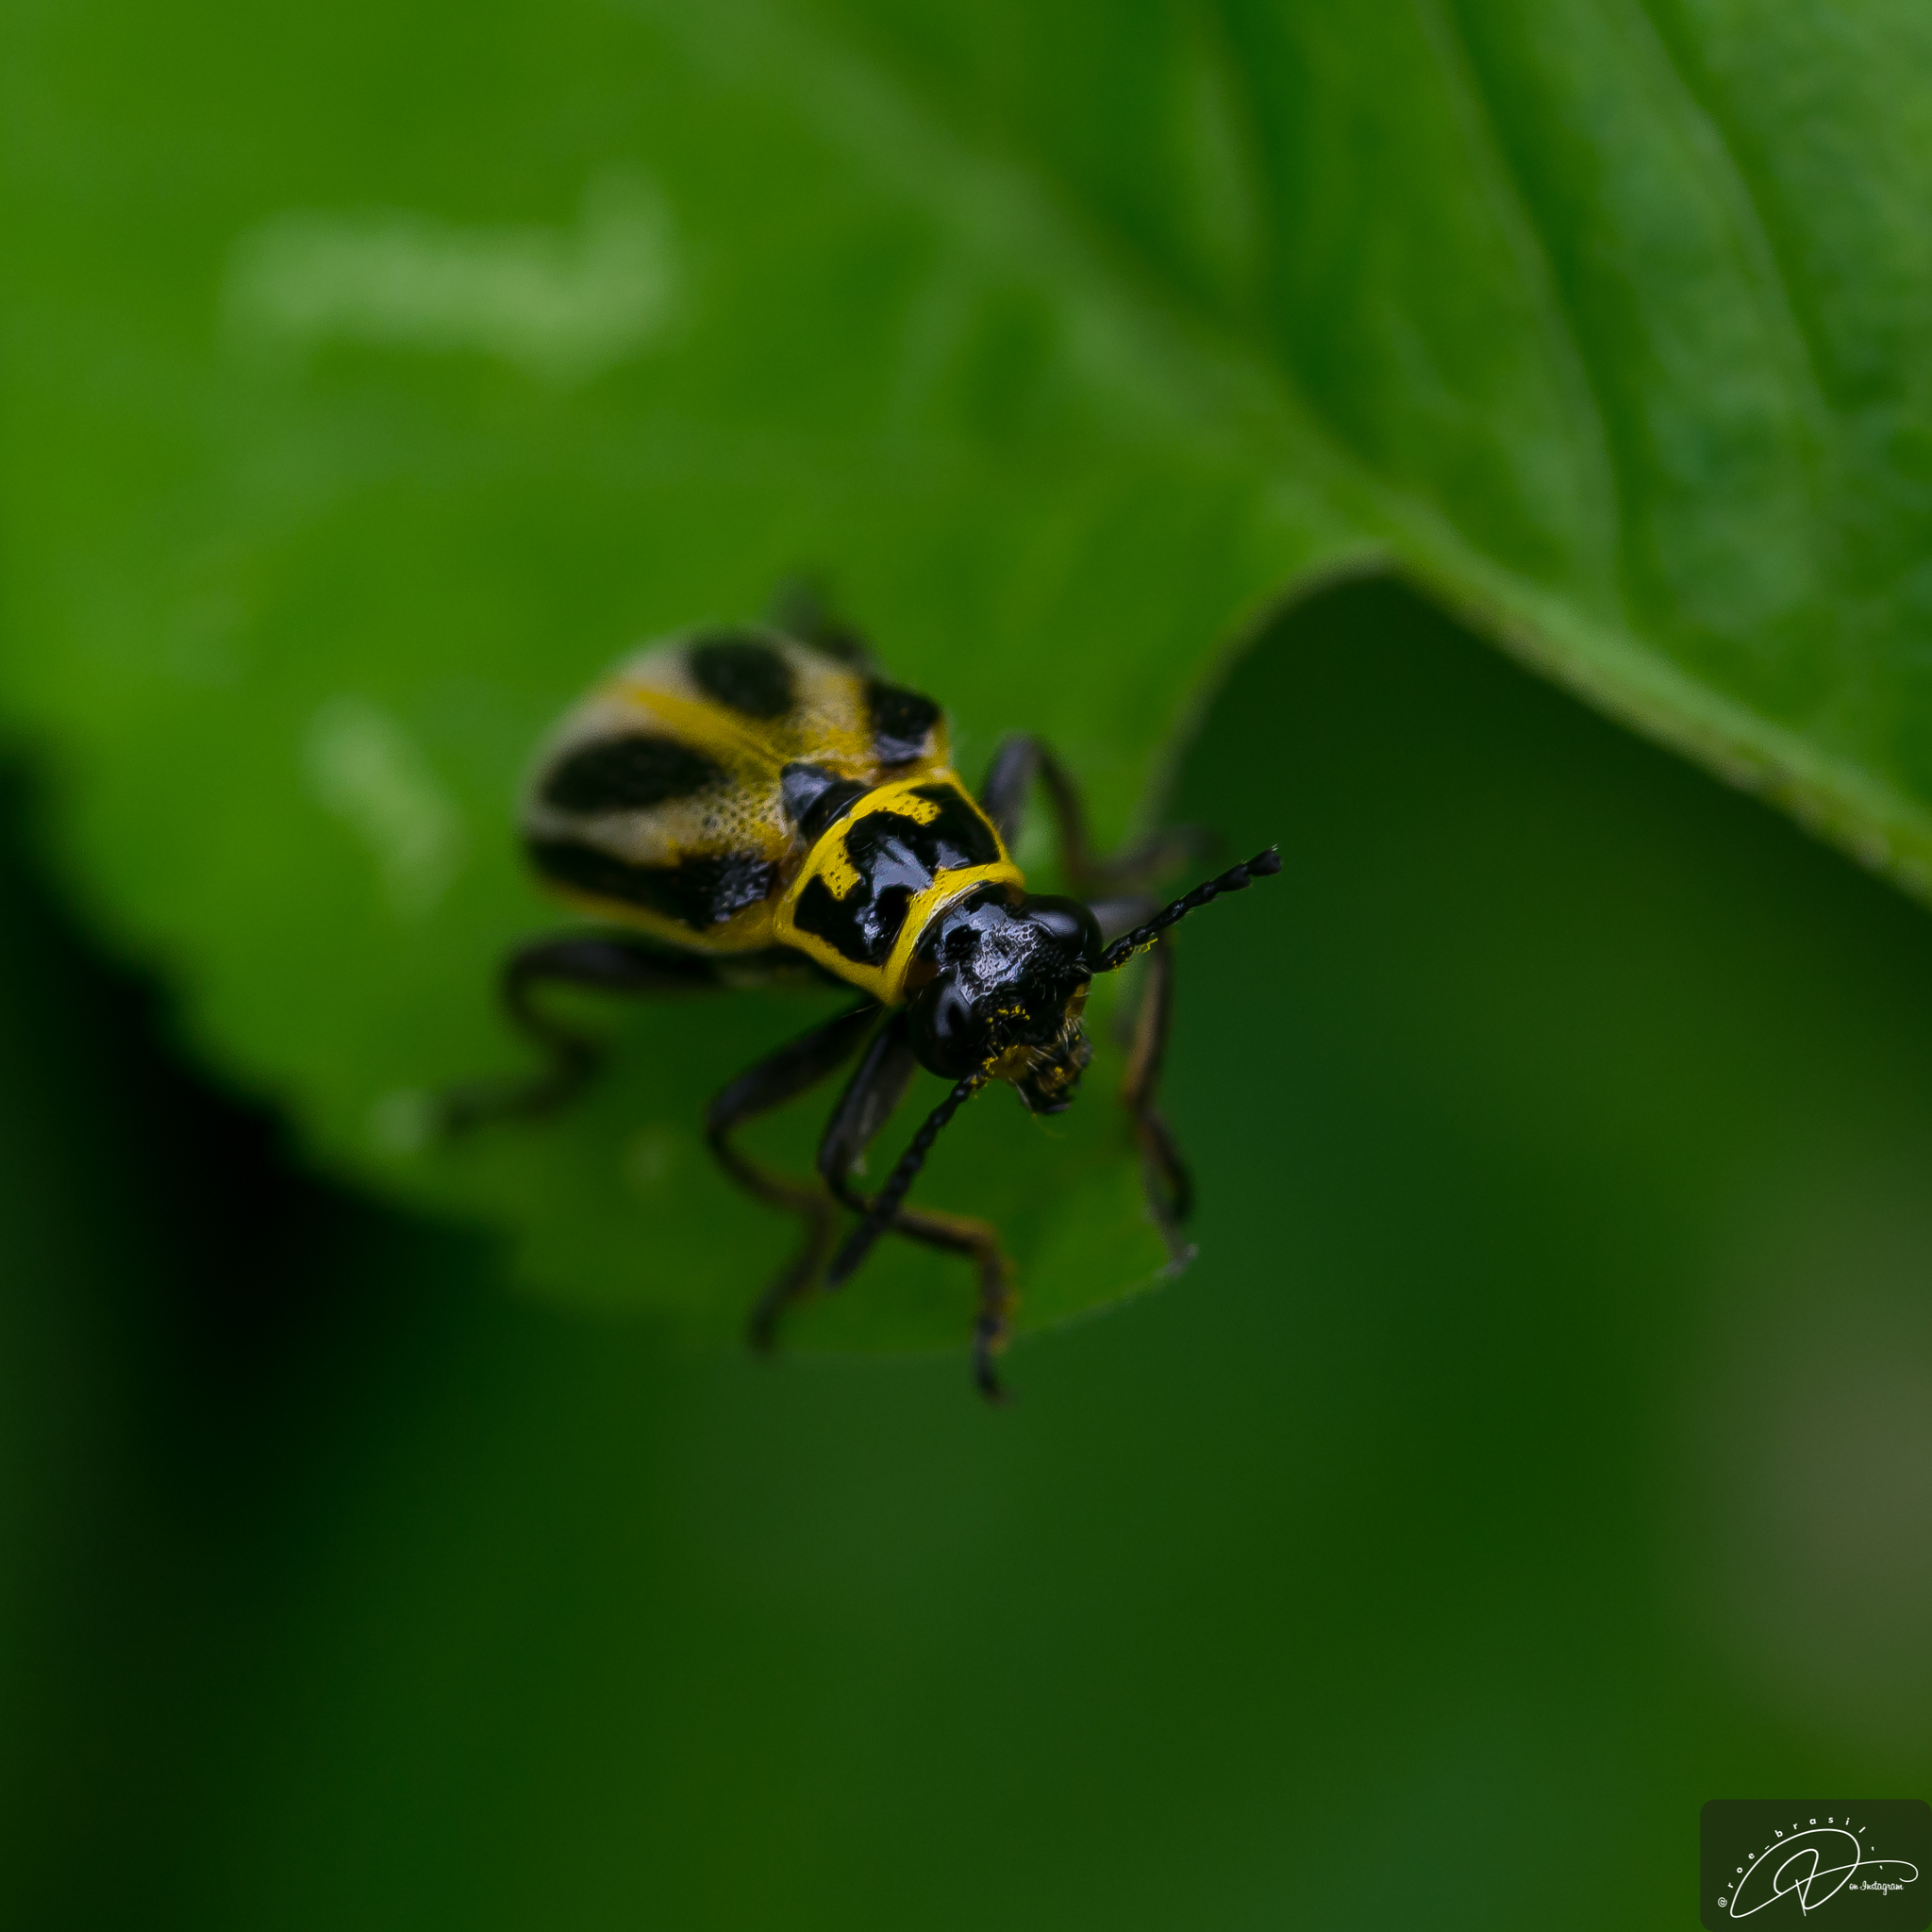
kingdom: Animalia
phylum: Arthropoda
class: Insecta
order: Coleoptera
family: Megalopodidae
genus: Agathomerus
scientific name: Agathomerus signatus
